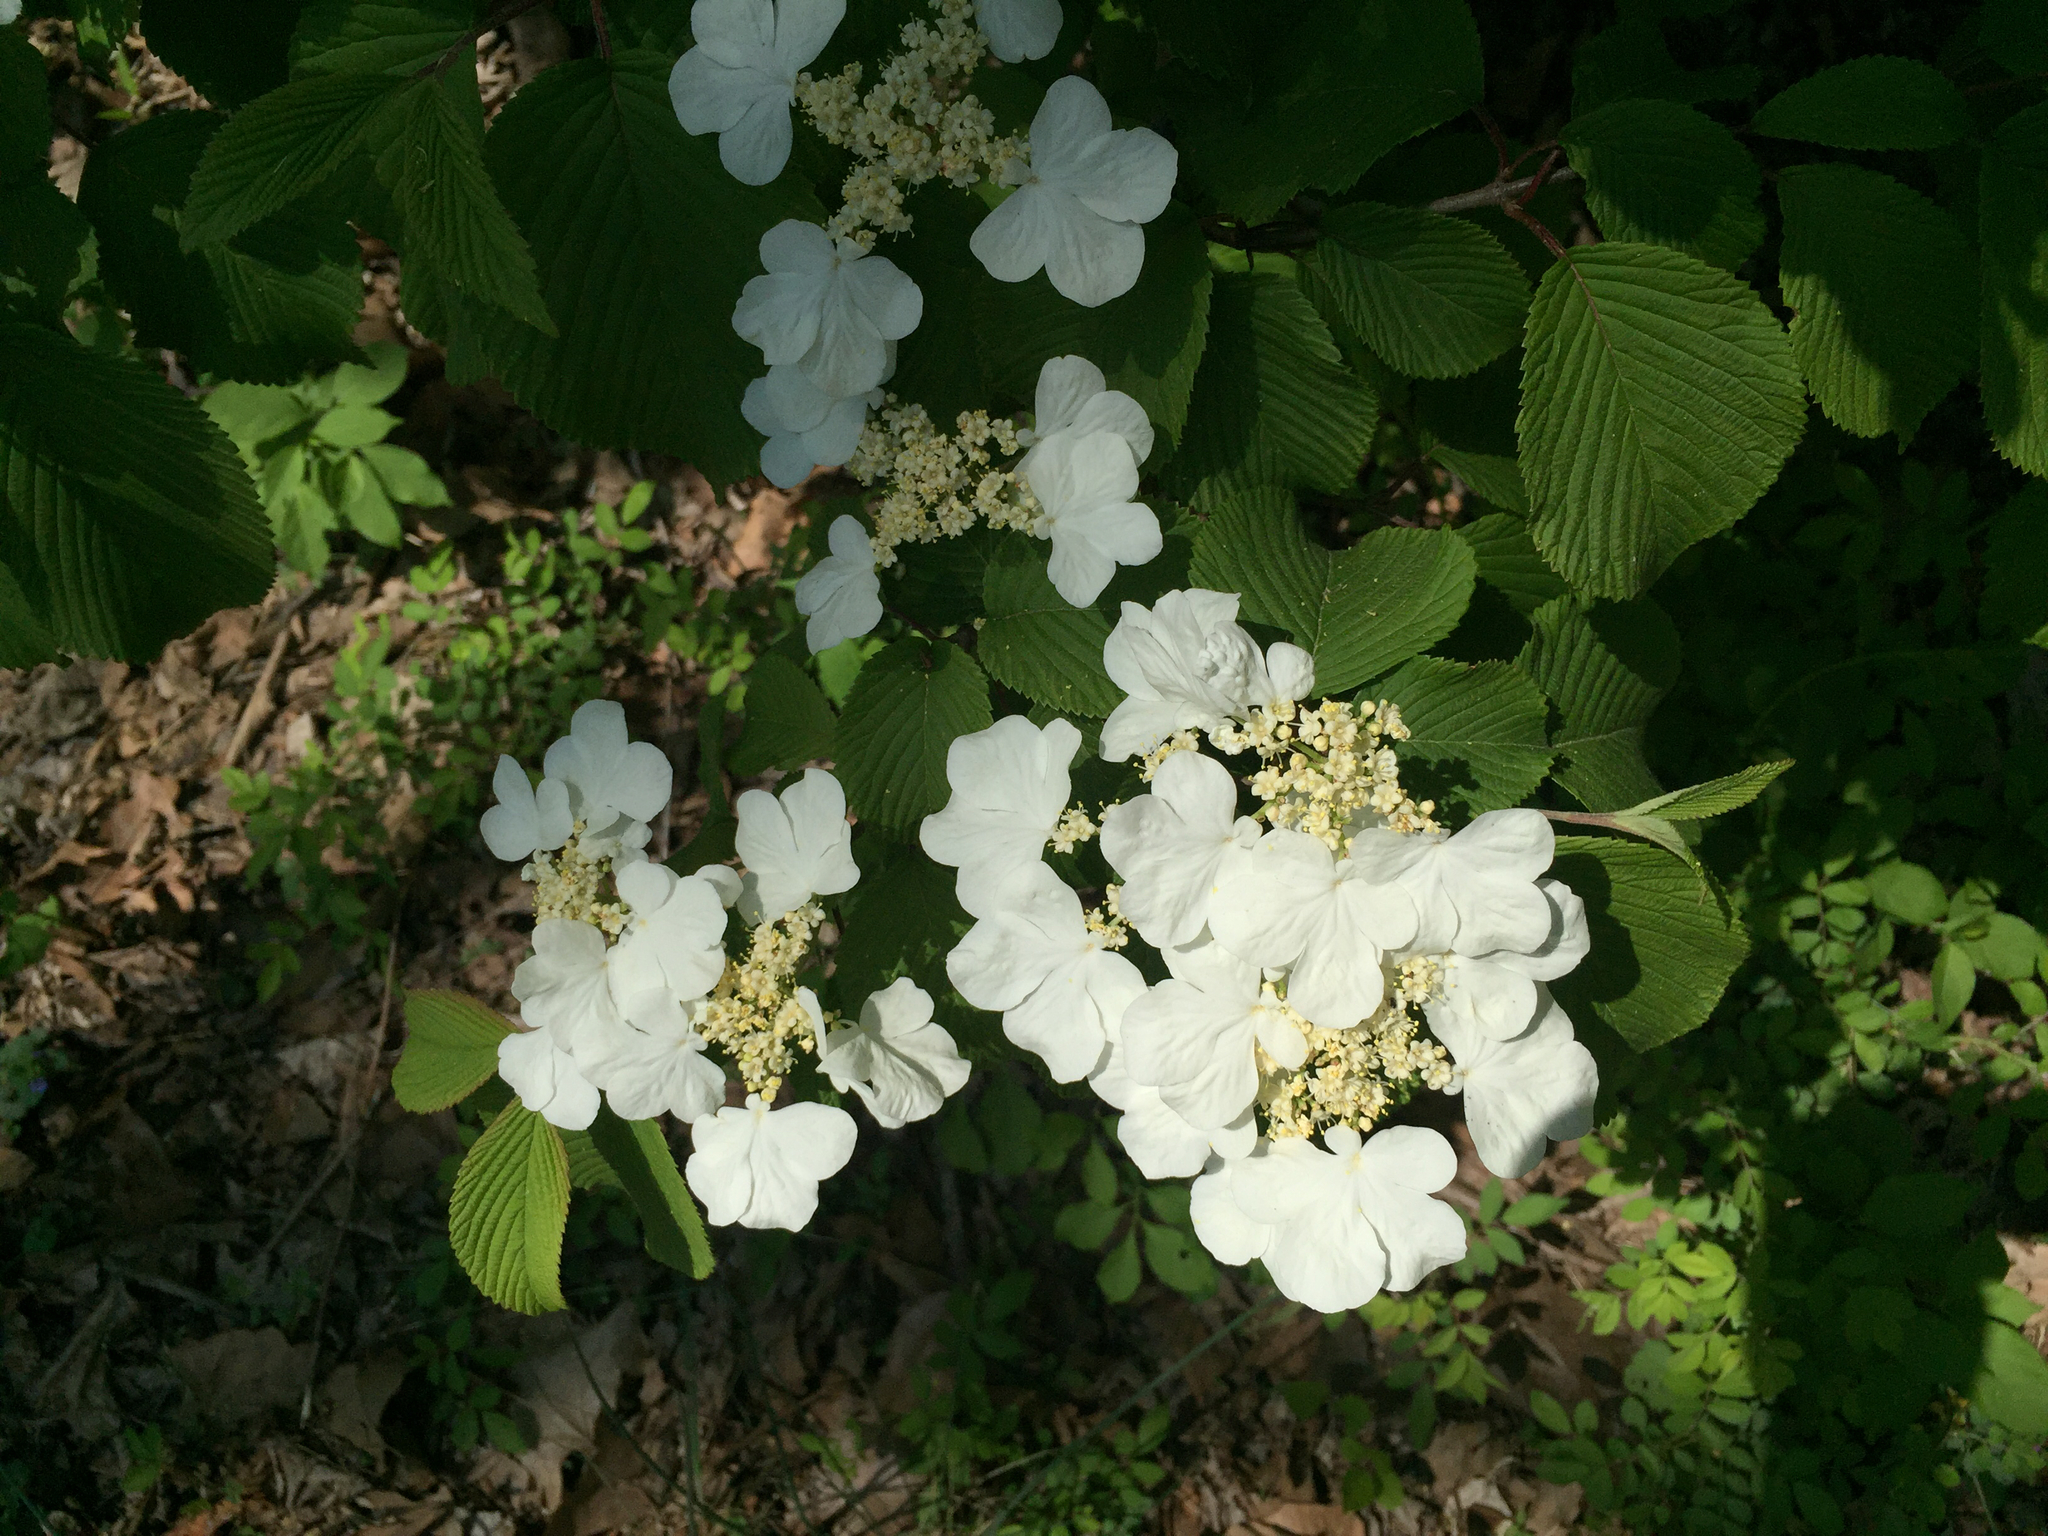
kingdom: Plantae
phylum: Tracheophyta
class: Magnoliopsida
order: Dipsacales
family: Viburnaceae
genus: Viburnum
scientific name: Viburnum plicatum
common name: Japanese snowball
